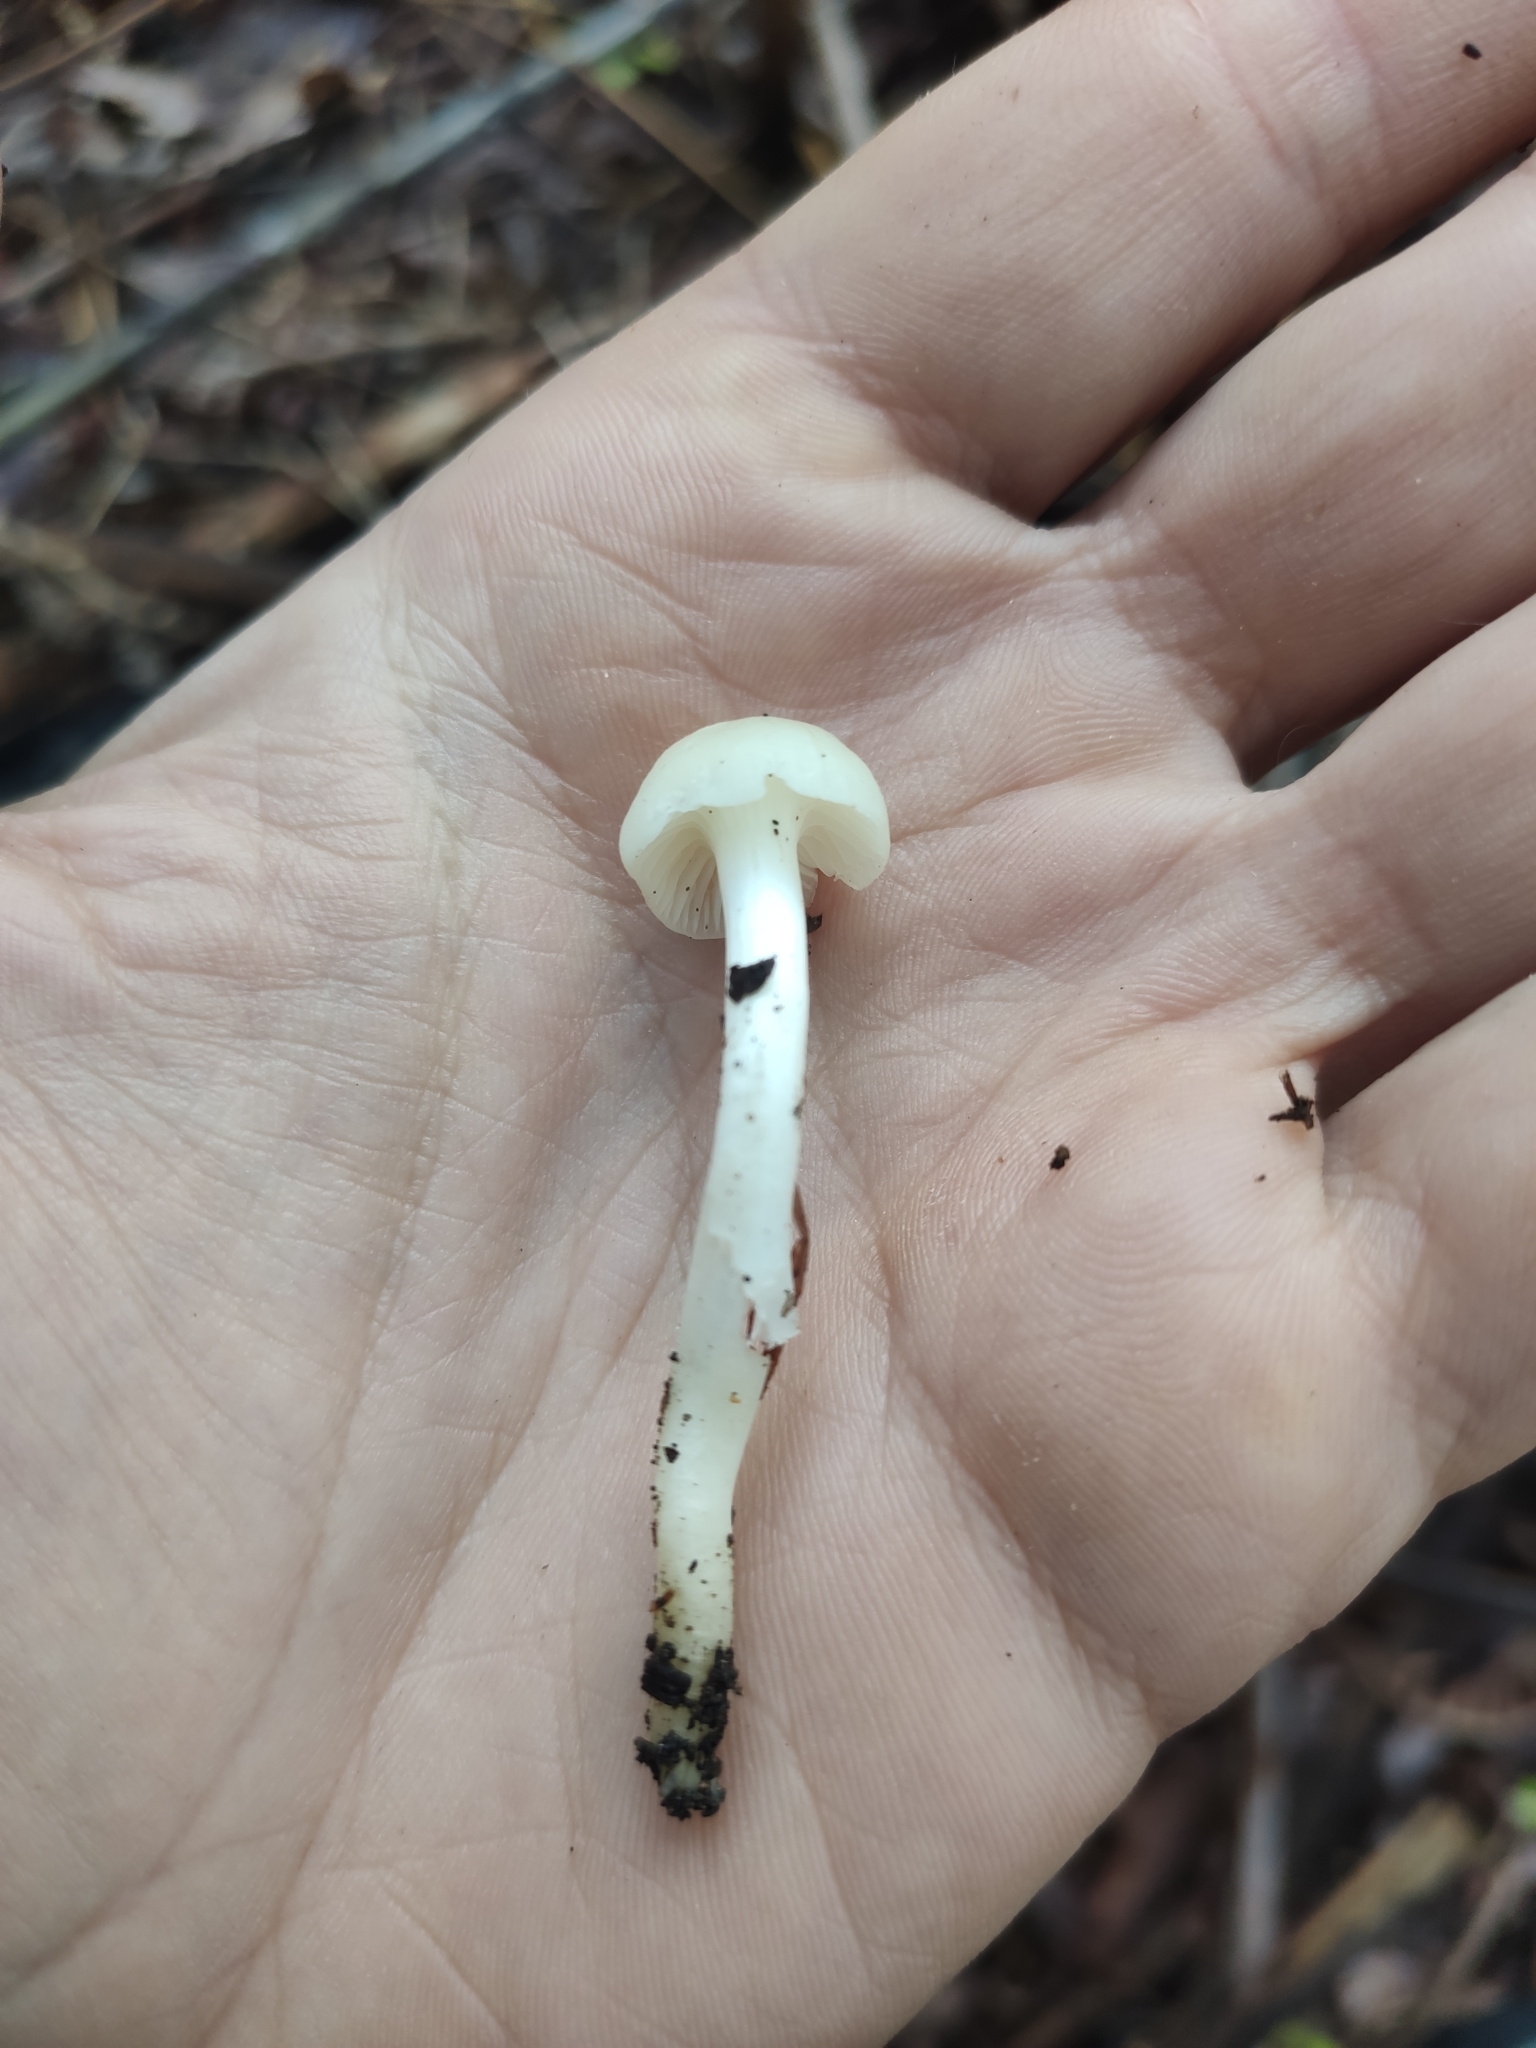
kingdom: Fungi
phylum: Basidiomycota
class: Agaricomycetes
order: Agaricales
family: Hygrophoraceae
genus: Cuphophyllus
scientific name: Cuphophyllus virgineus
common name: Snowy waxcap
